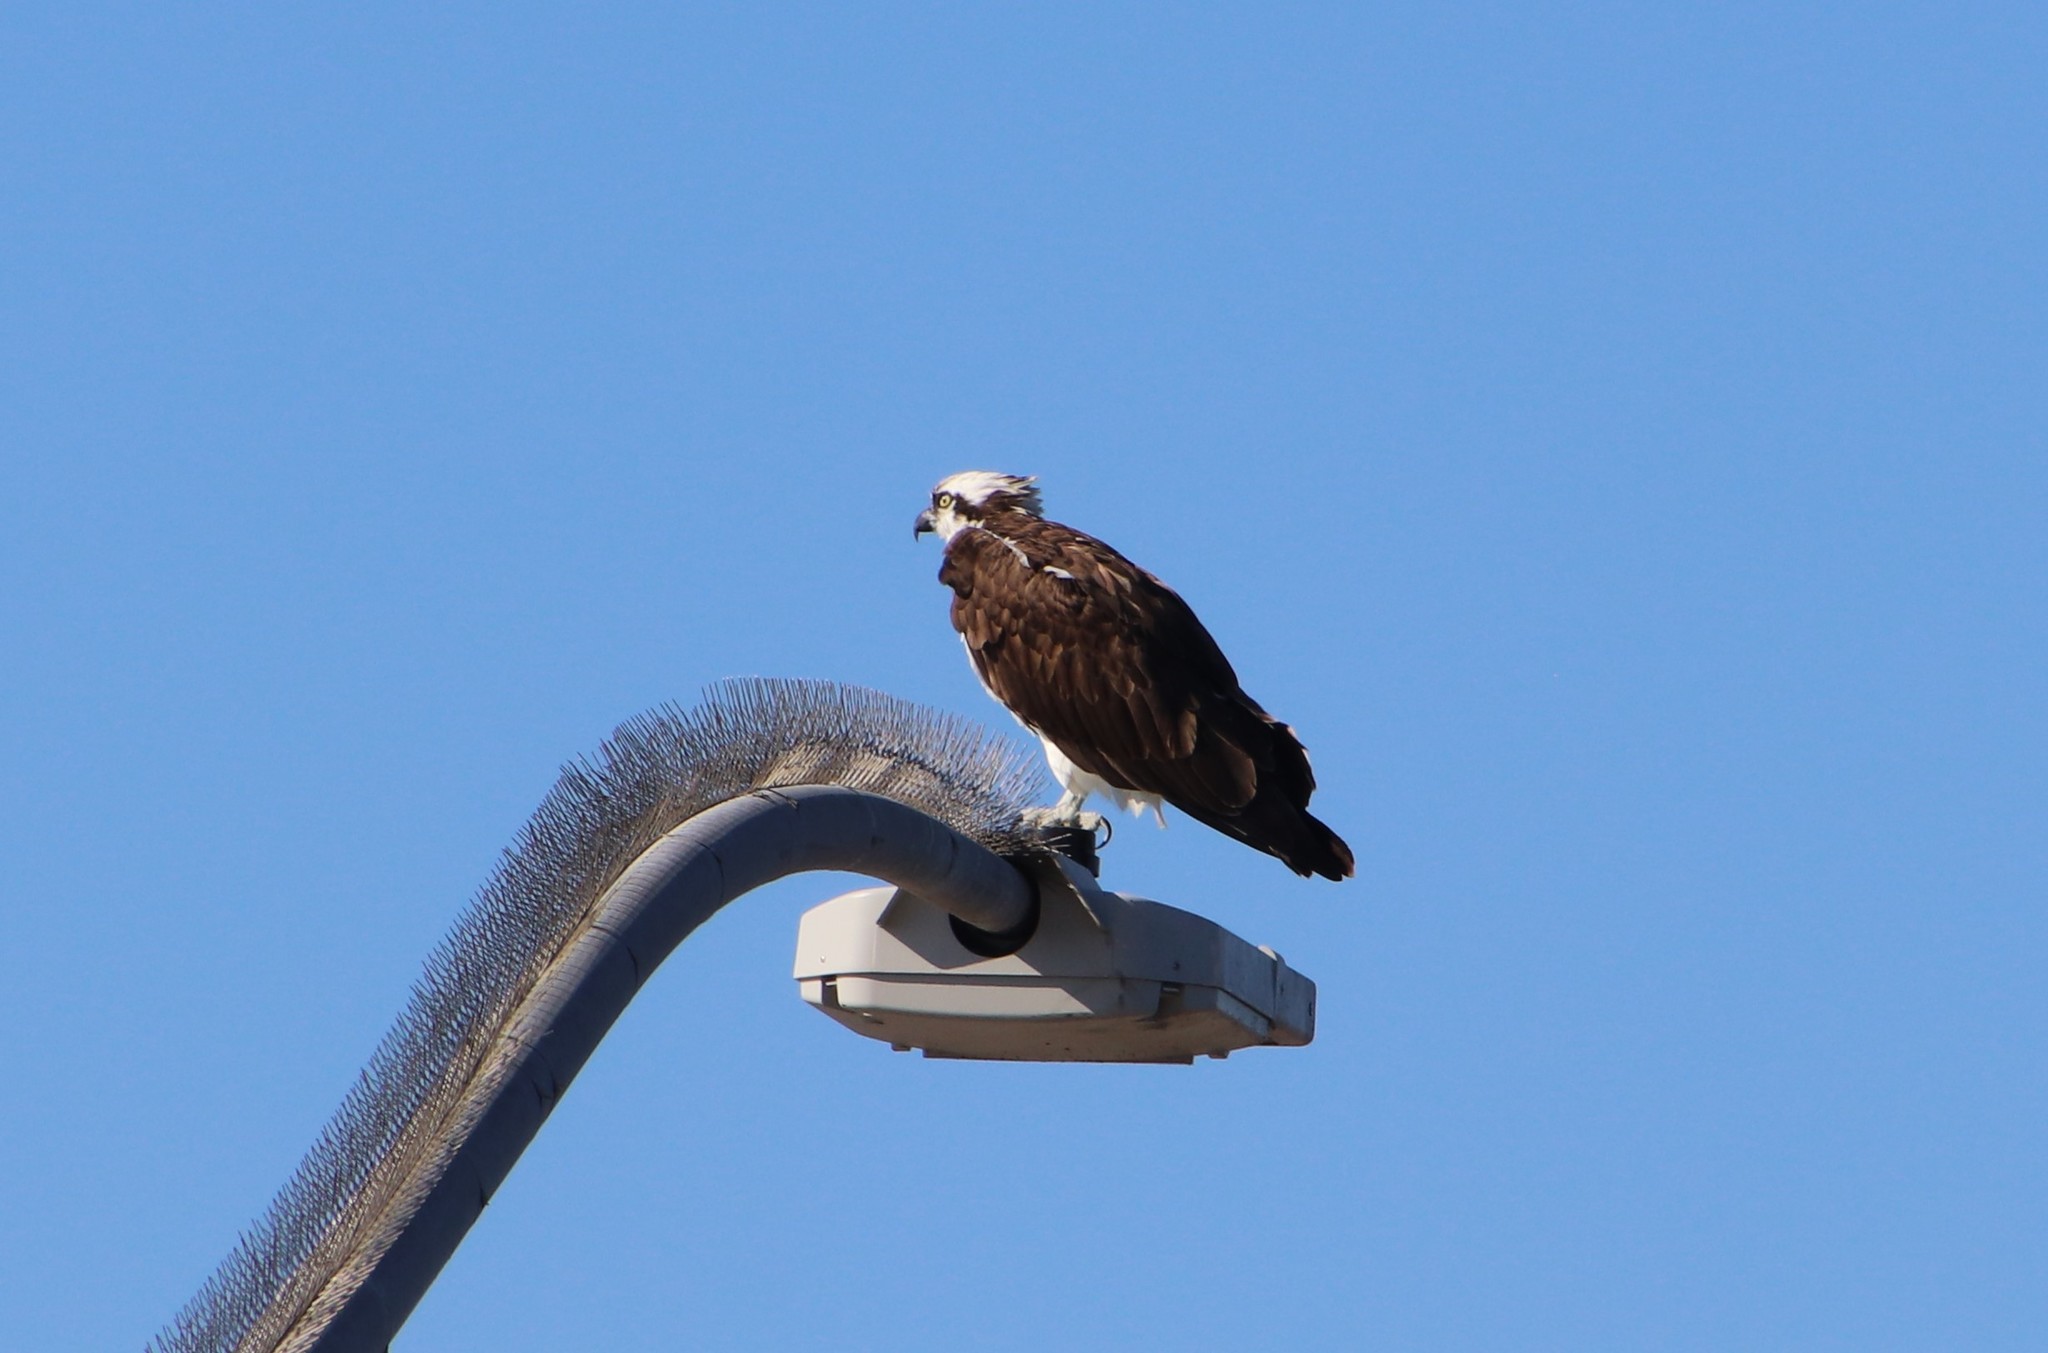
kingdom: Animalia
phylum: Chordata
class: Aves
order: Accipitriformes
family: Pandionidae
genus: Pandion
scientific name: Pandion haliaetus
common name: Osprey
